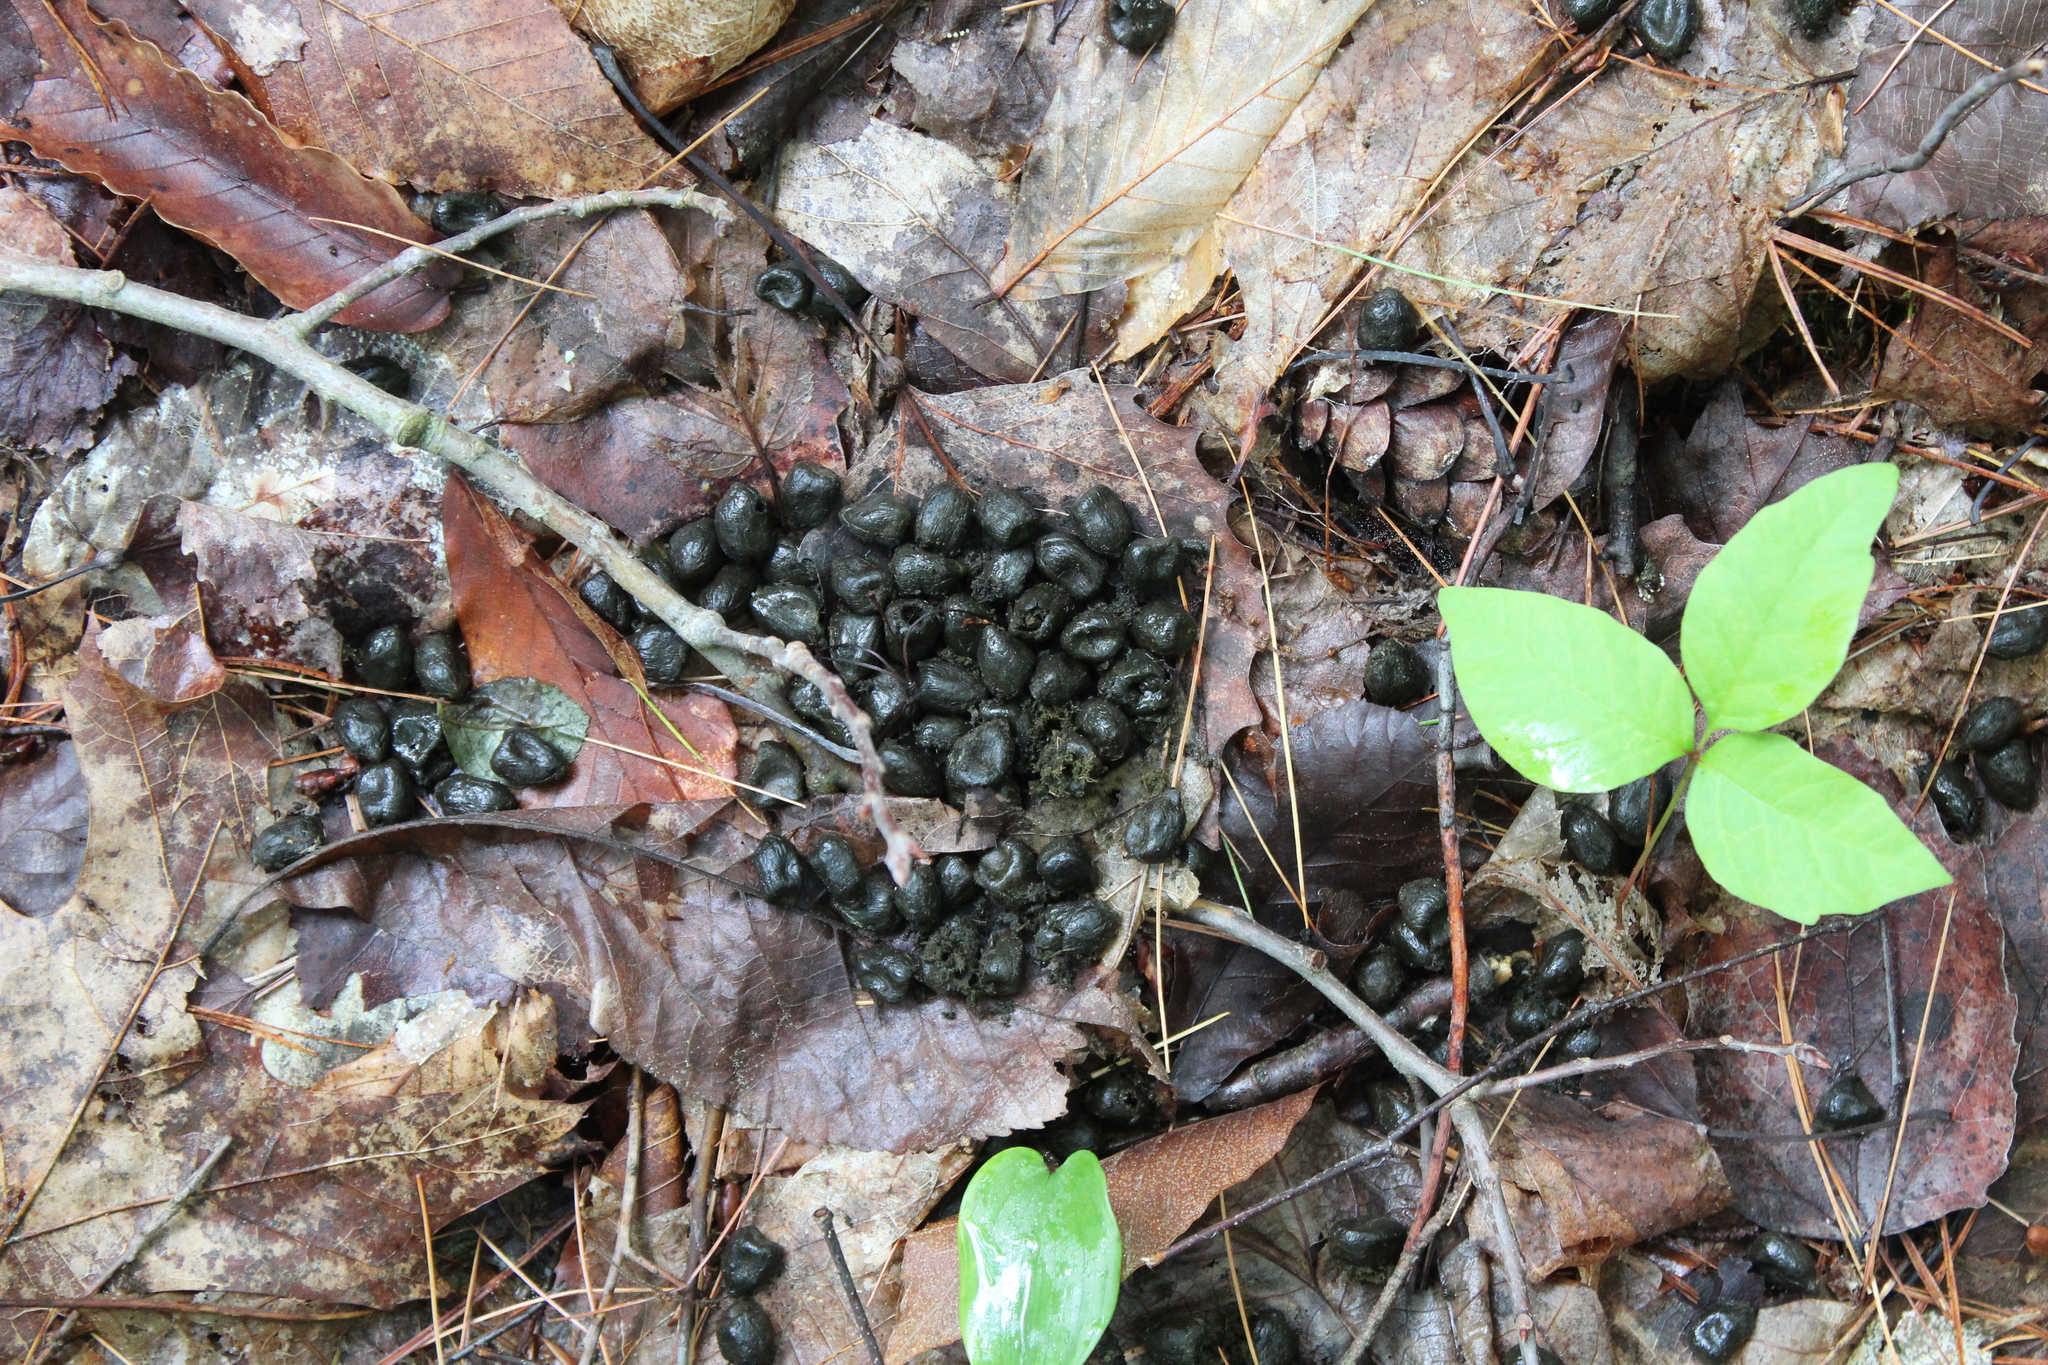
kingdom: Animalia
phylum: Chordata
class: Mammalia
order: Artiodactyla
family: Cervidae
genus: Odocoileus
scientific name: Odocoileus virginianus
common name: White-tailed deer
